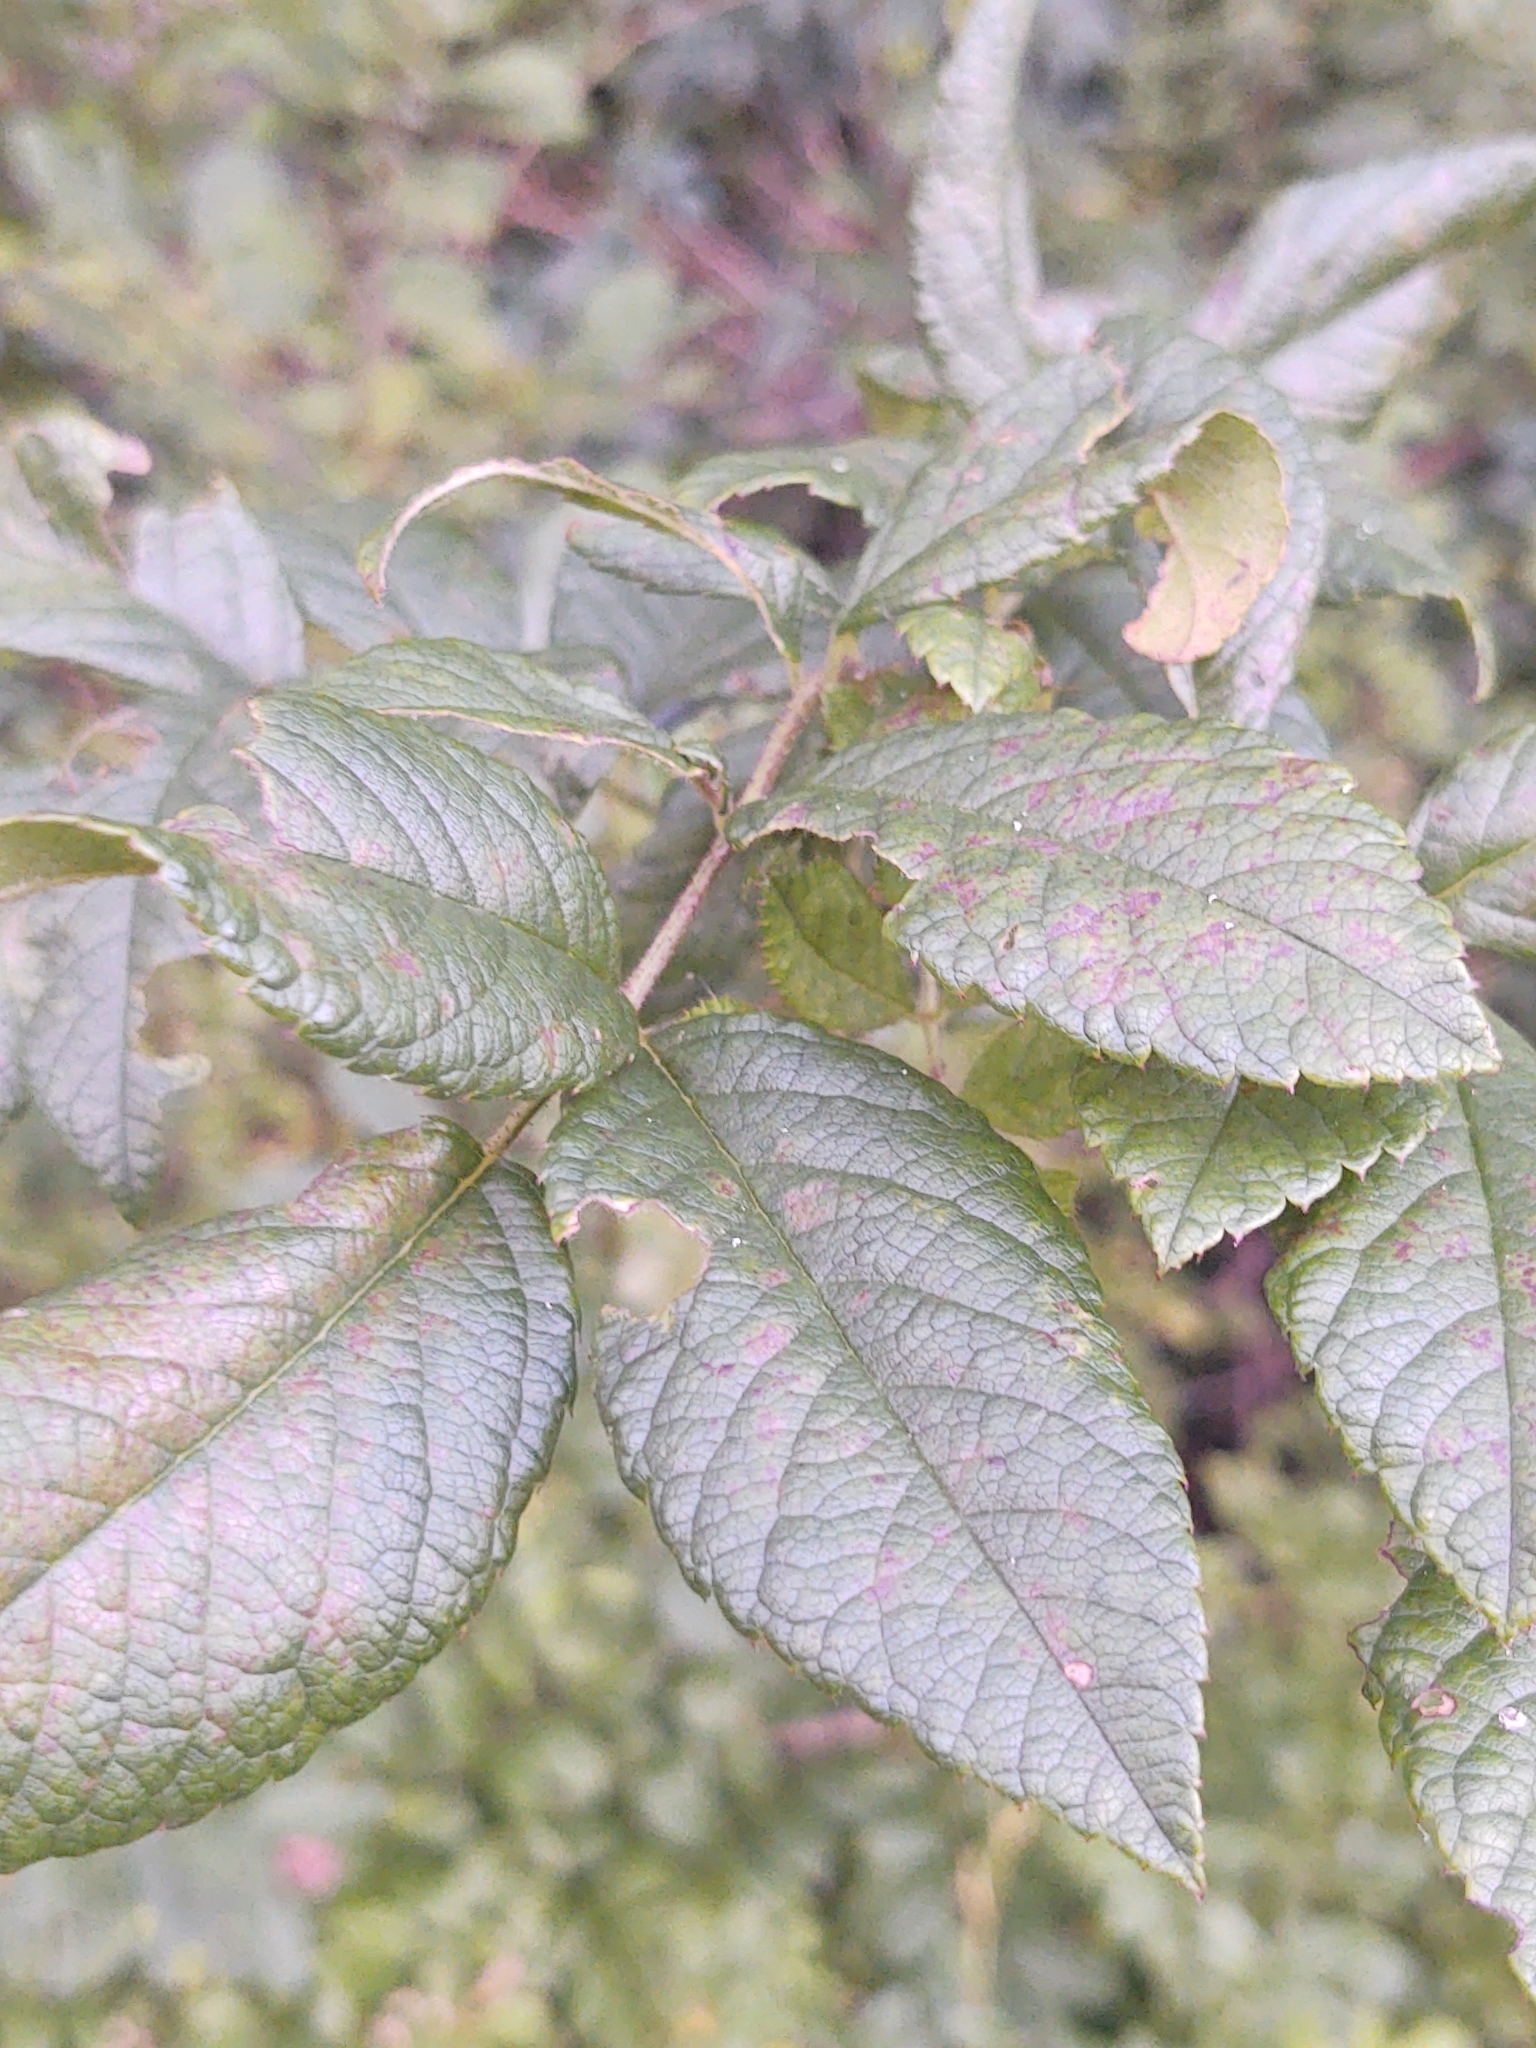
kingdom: Plantae
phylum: Tracheophyta
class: Magnoliopsida
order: Rosales
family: Rosaceae
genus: Rosa
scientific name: Rosa multiflora
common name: Multiflora rose
